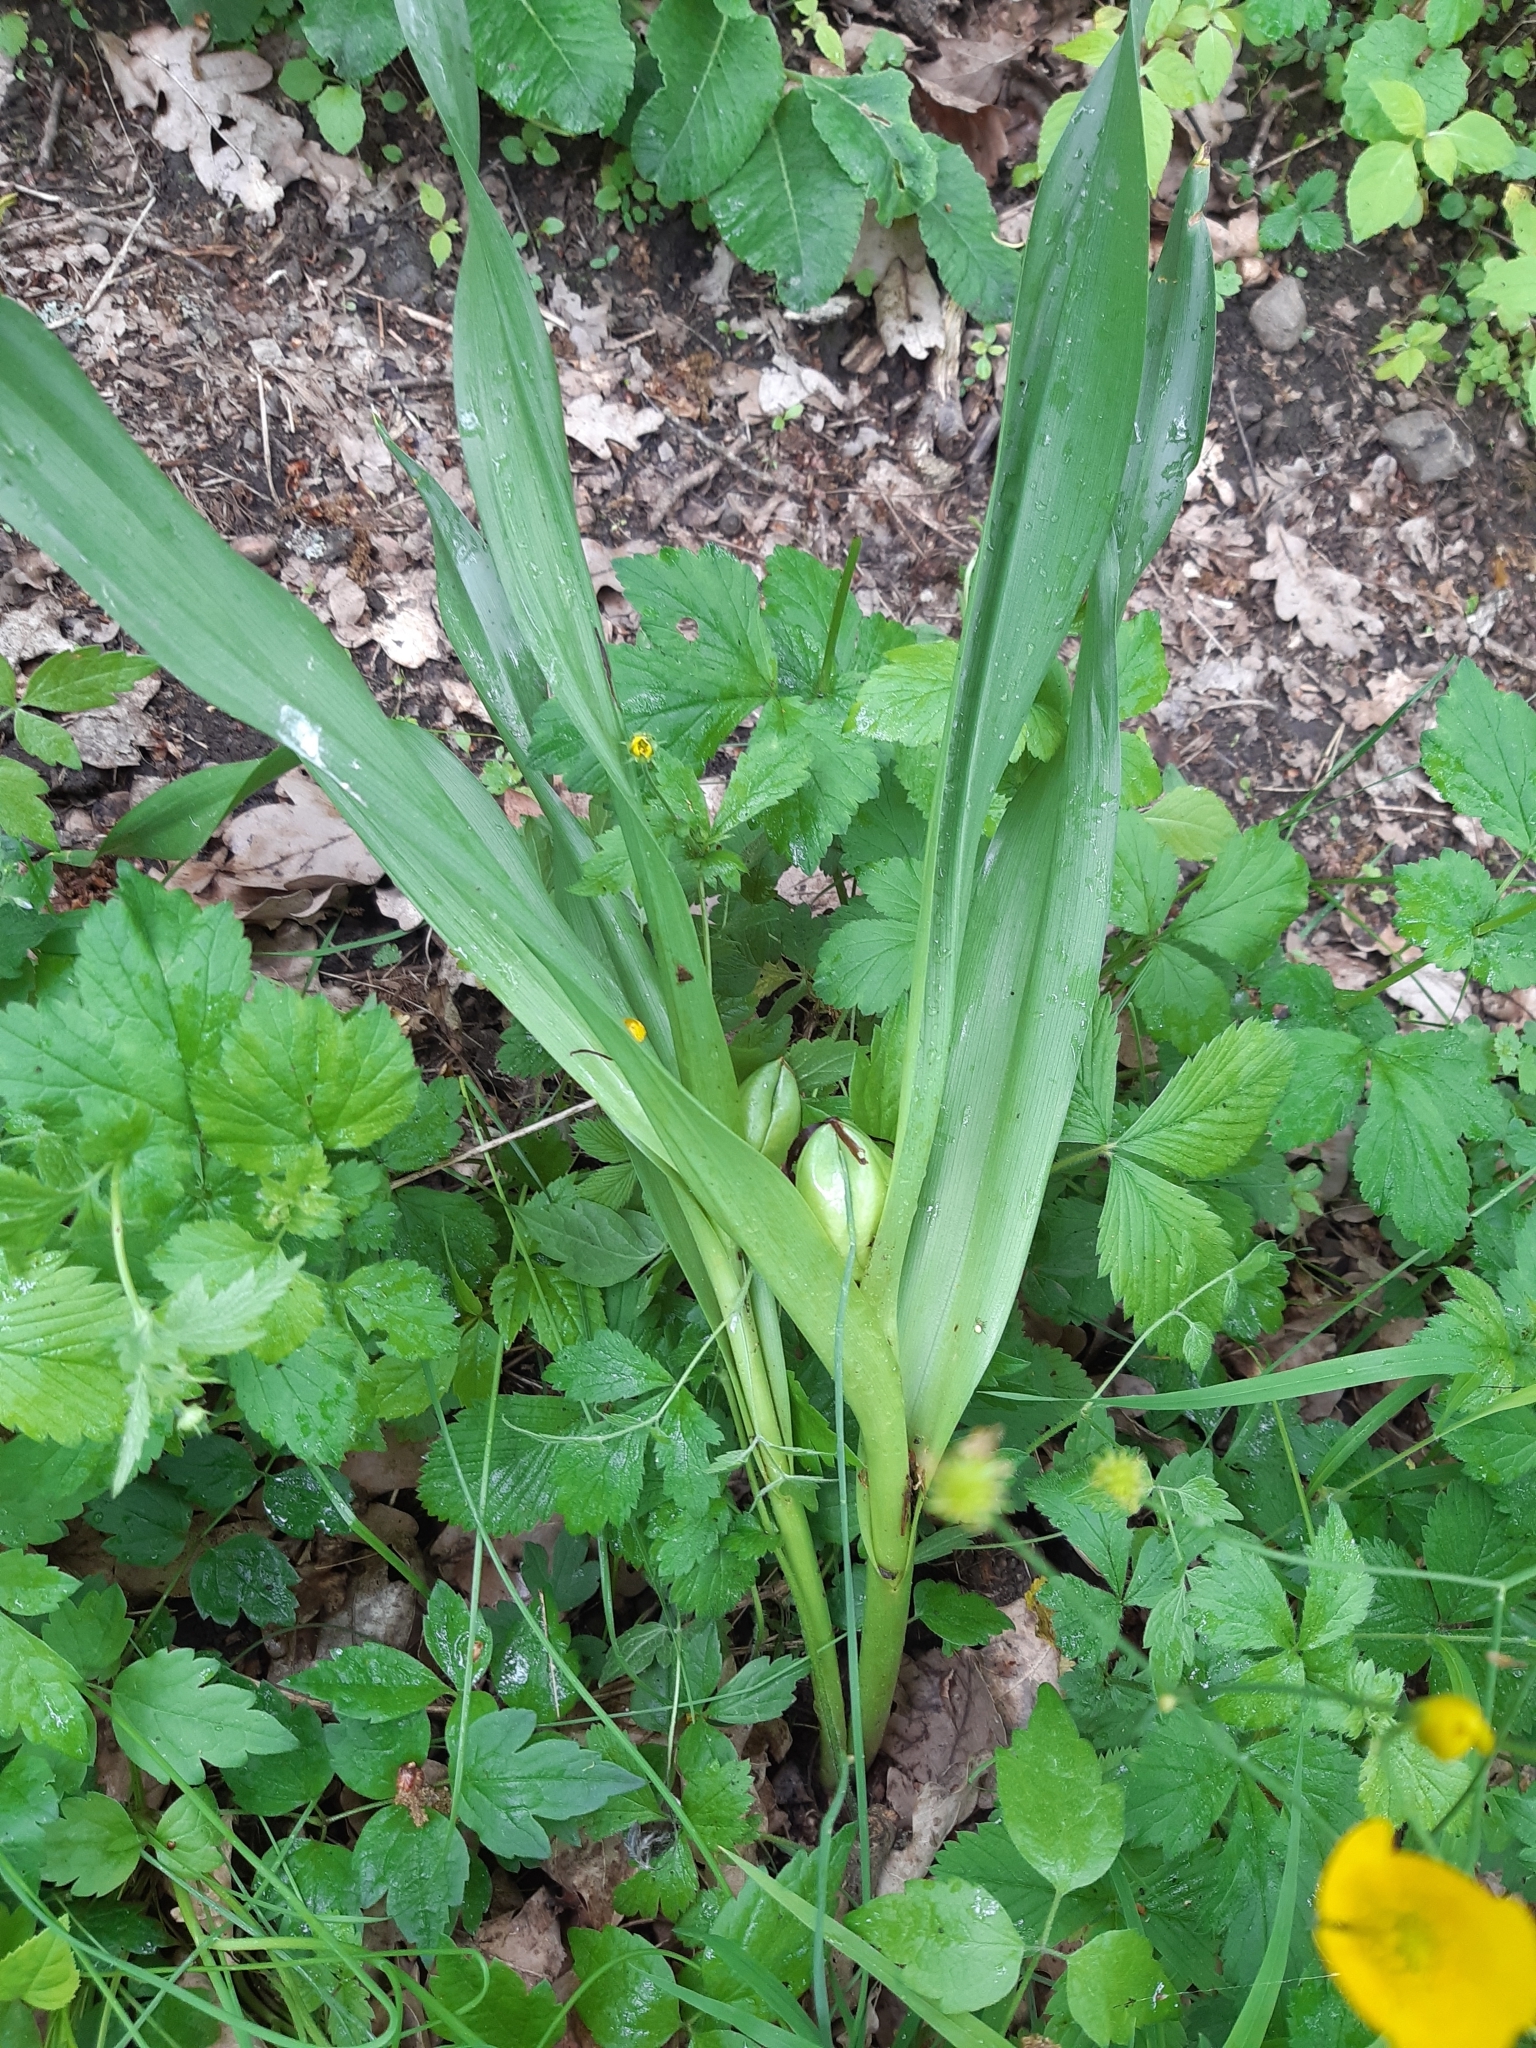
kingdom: Plantae
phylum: Tracheophyta
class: Liliopsida
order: Liliales
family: Colchicaceae
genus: Colchicum
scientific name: Colchicum autumnale
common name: Autumn crocus
